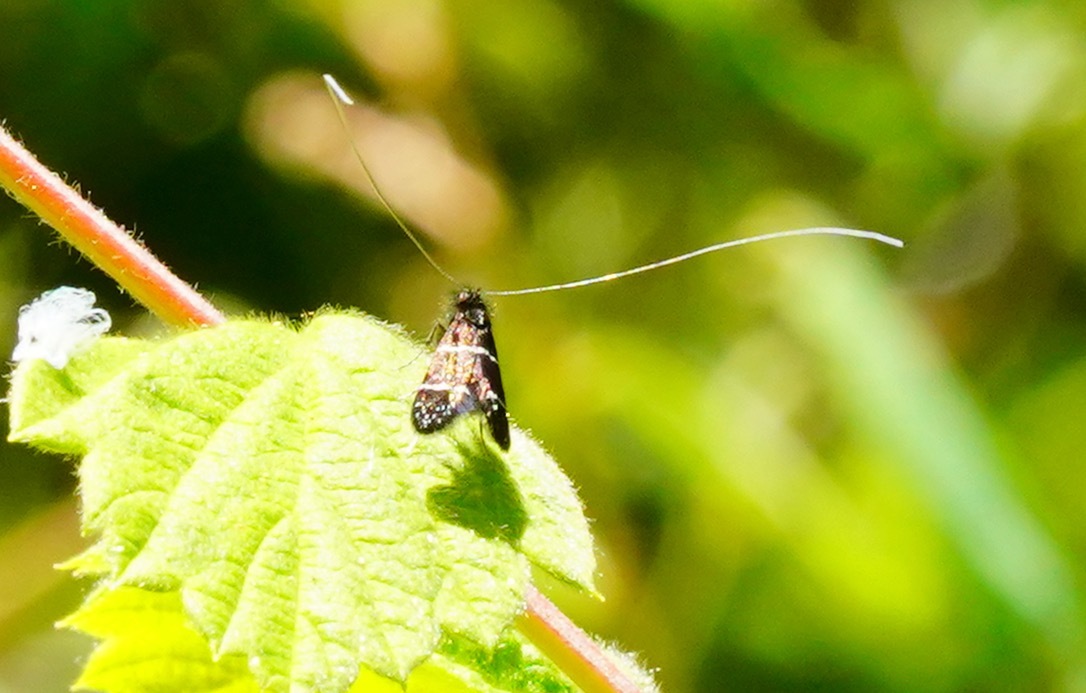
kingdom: Animalia
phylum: Arthropoda
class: Insecta
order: Lepidoptera
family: Adelidae
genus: Adela
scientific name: Adela septentrionella
